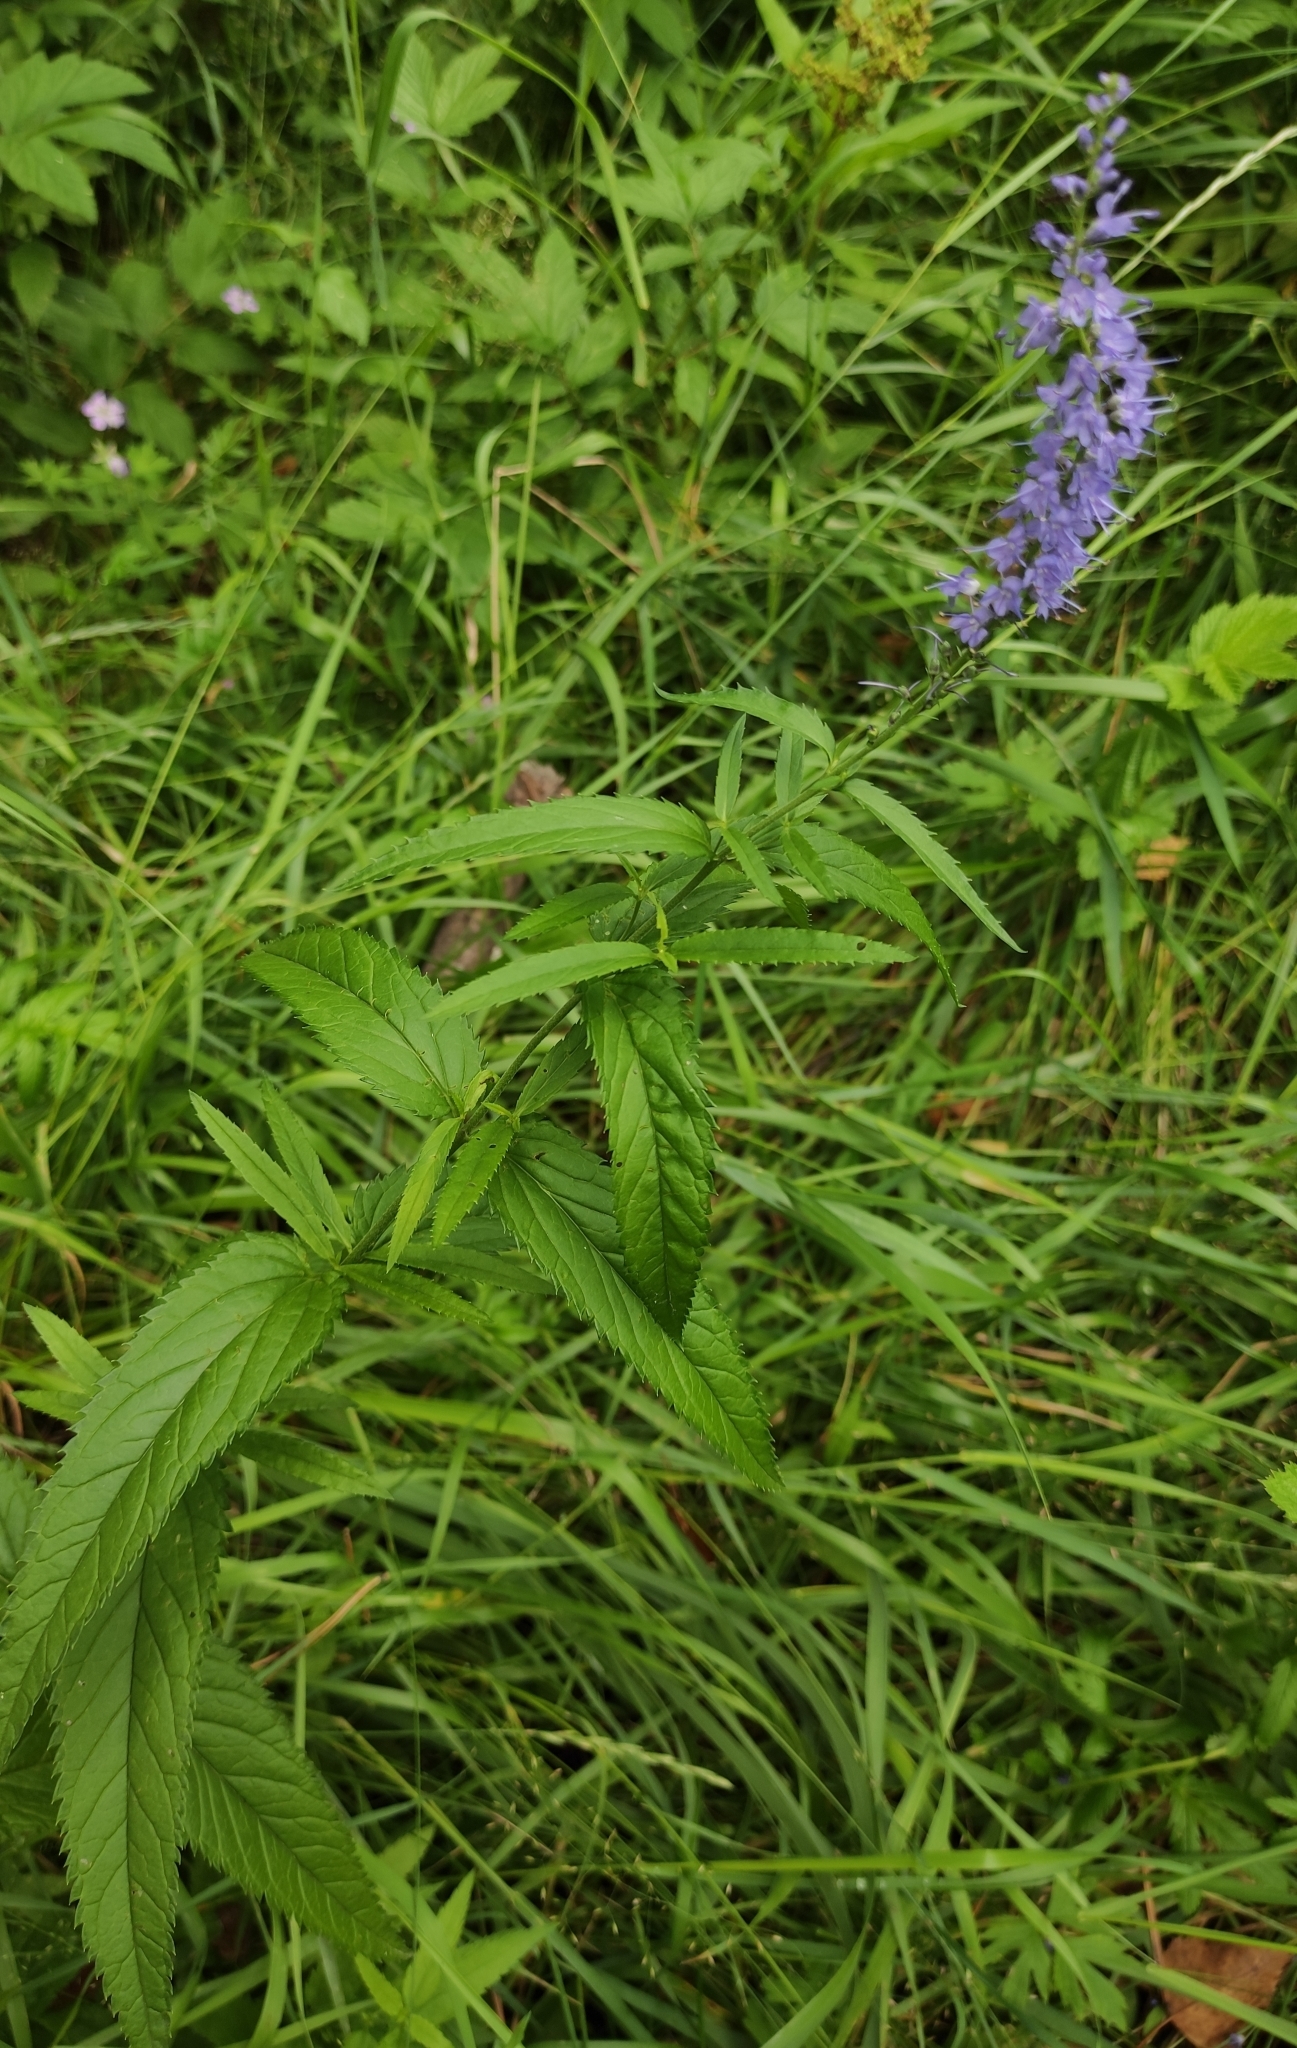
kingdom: Plantae
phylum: Tracheophyta
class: Magnoliopsida
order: Lamiales
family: Plantaginaceae
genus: Veronica
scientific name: Veronica longifolia
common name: Garden speedwell
